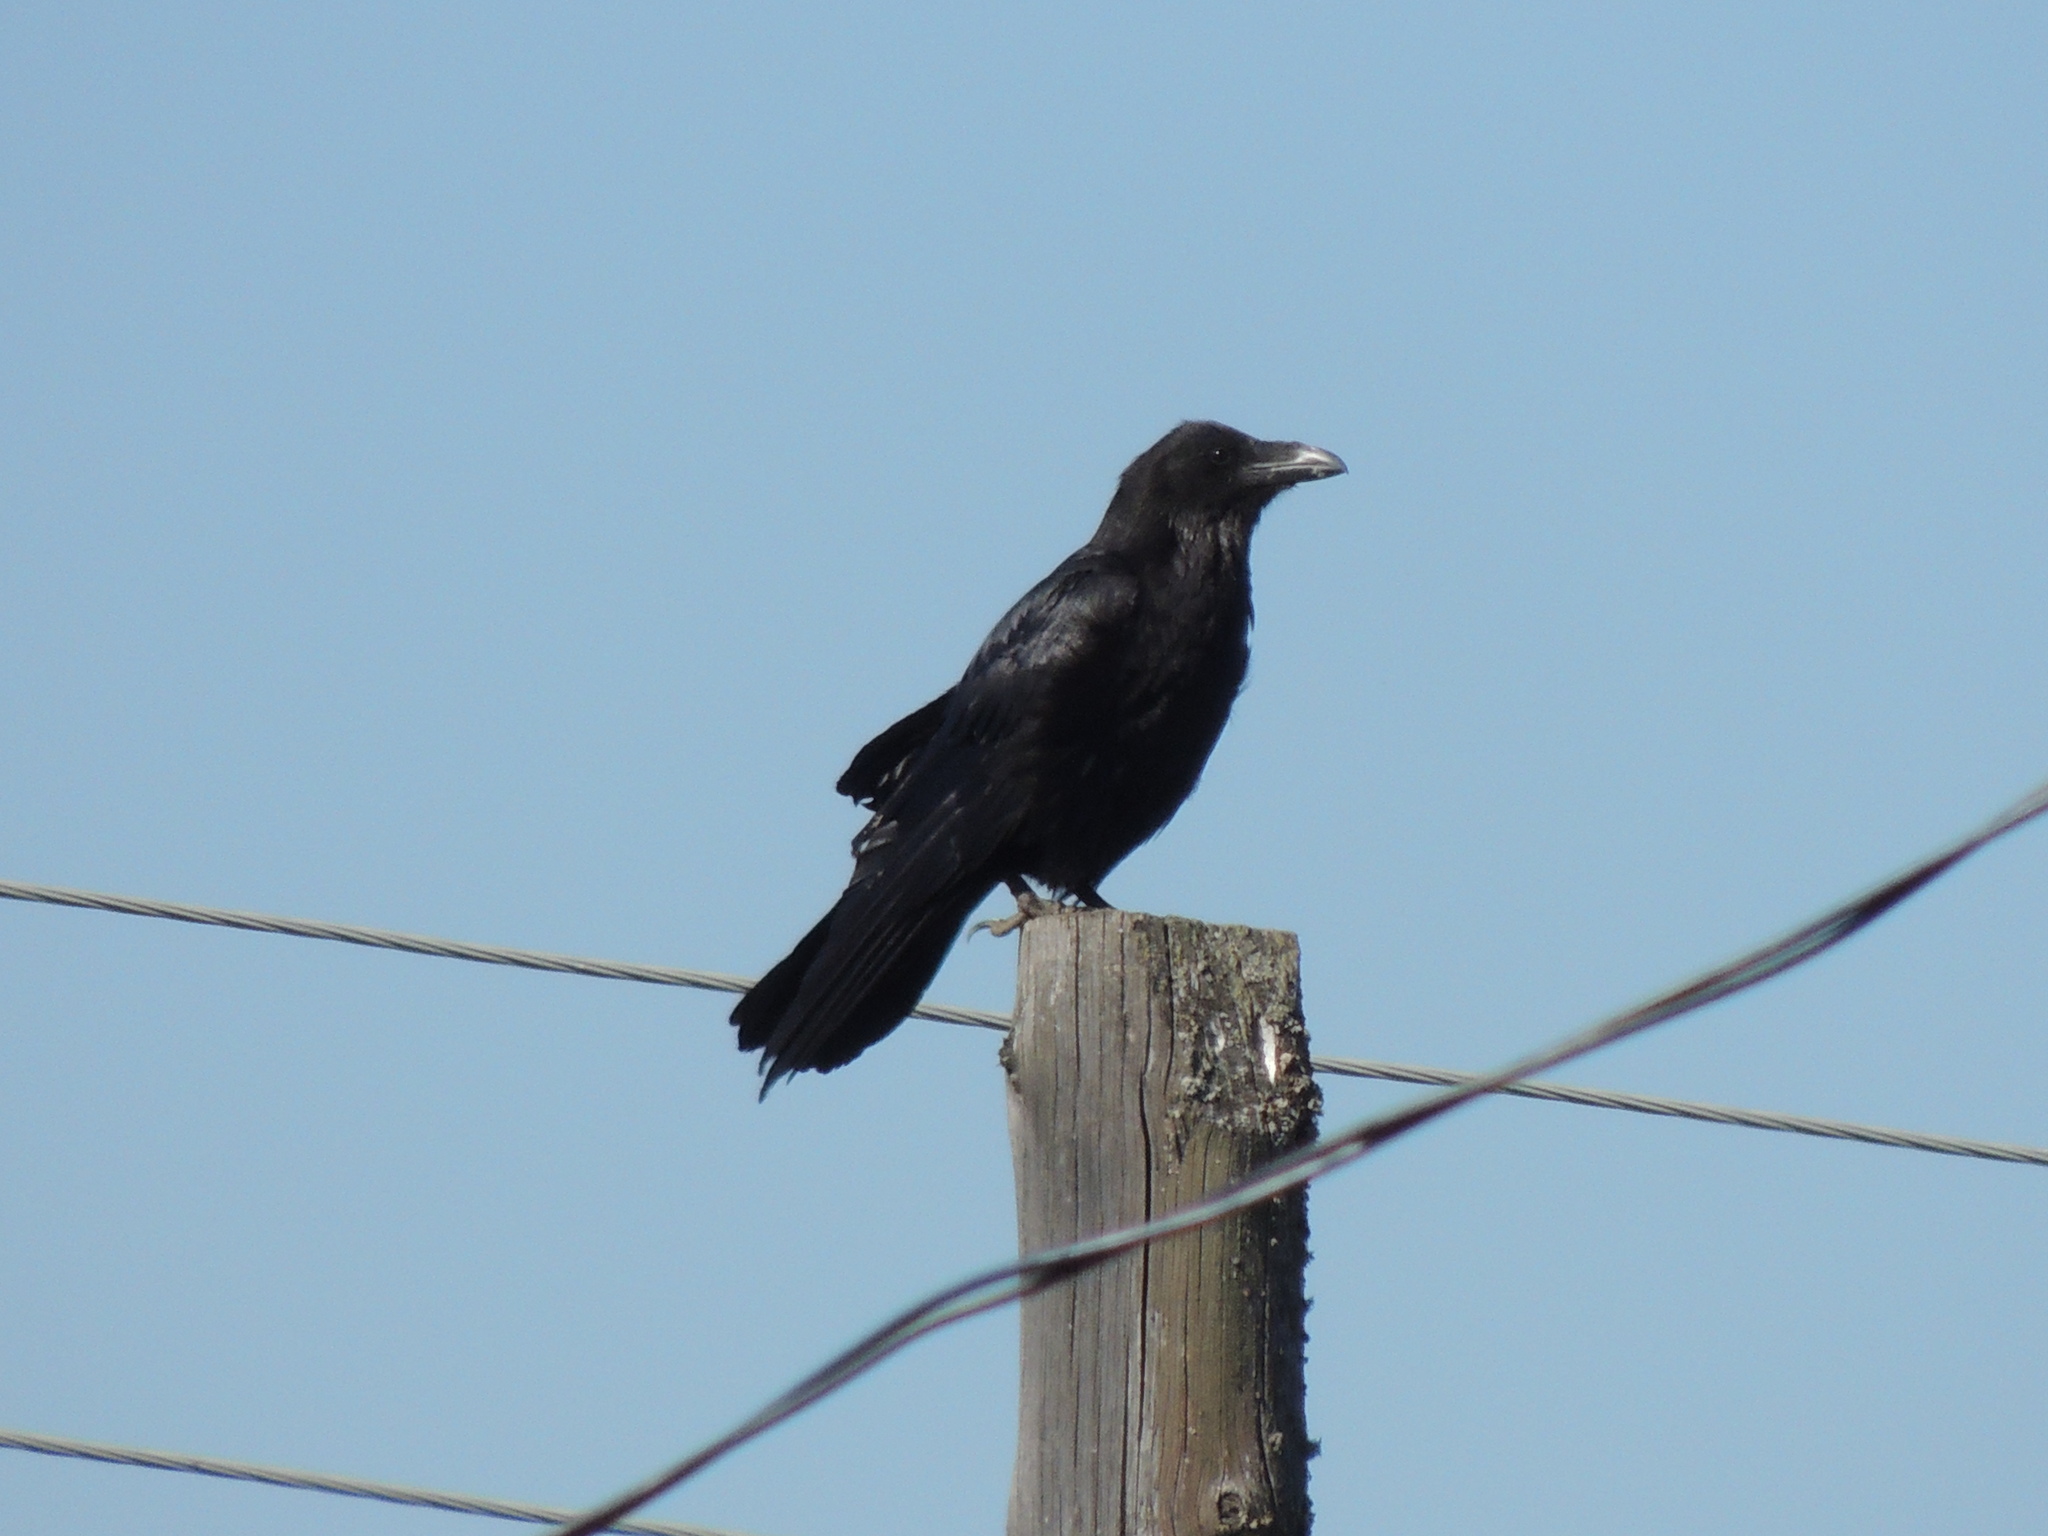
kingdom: Animalia
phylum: Chordata
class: Aves
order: Passeriformes
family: Corvidae
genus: Corvus
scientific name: Corvus corax
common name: Common raven
